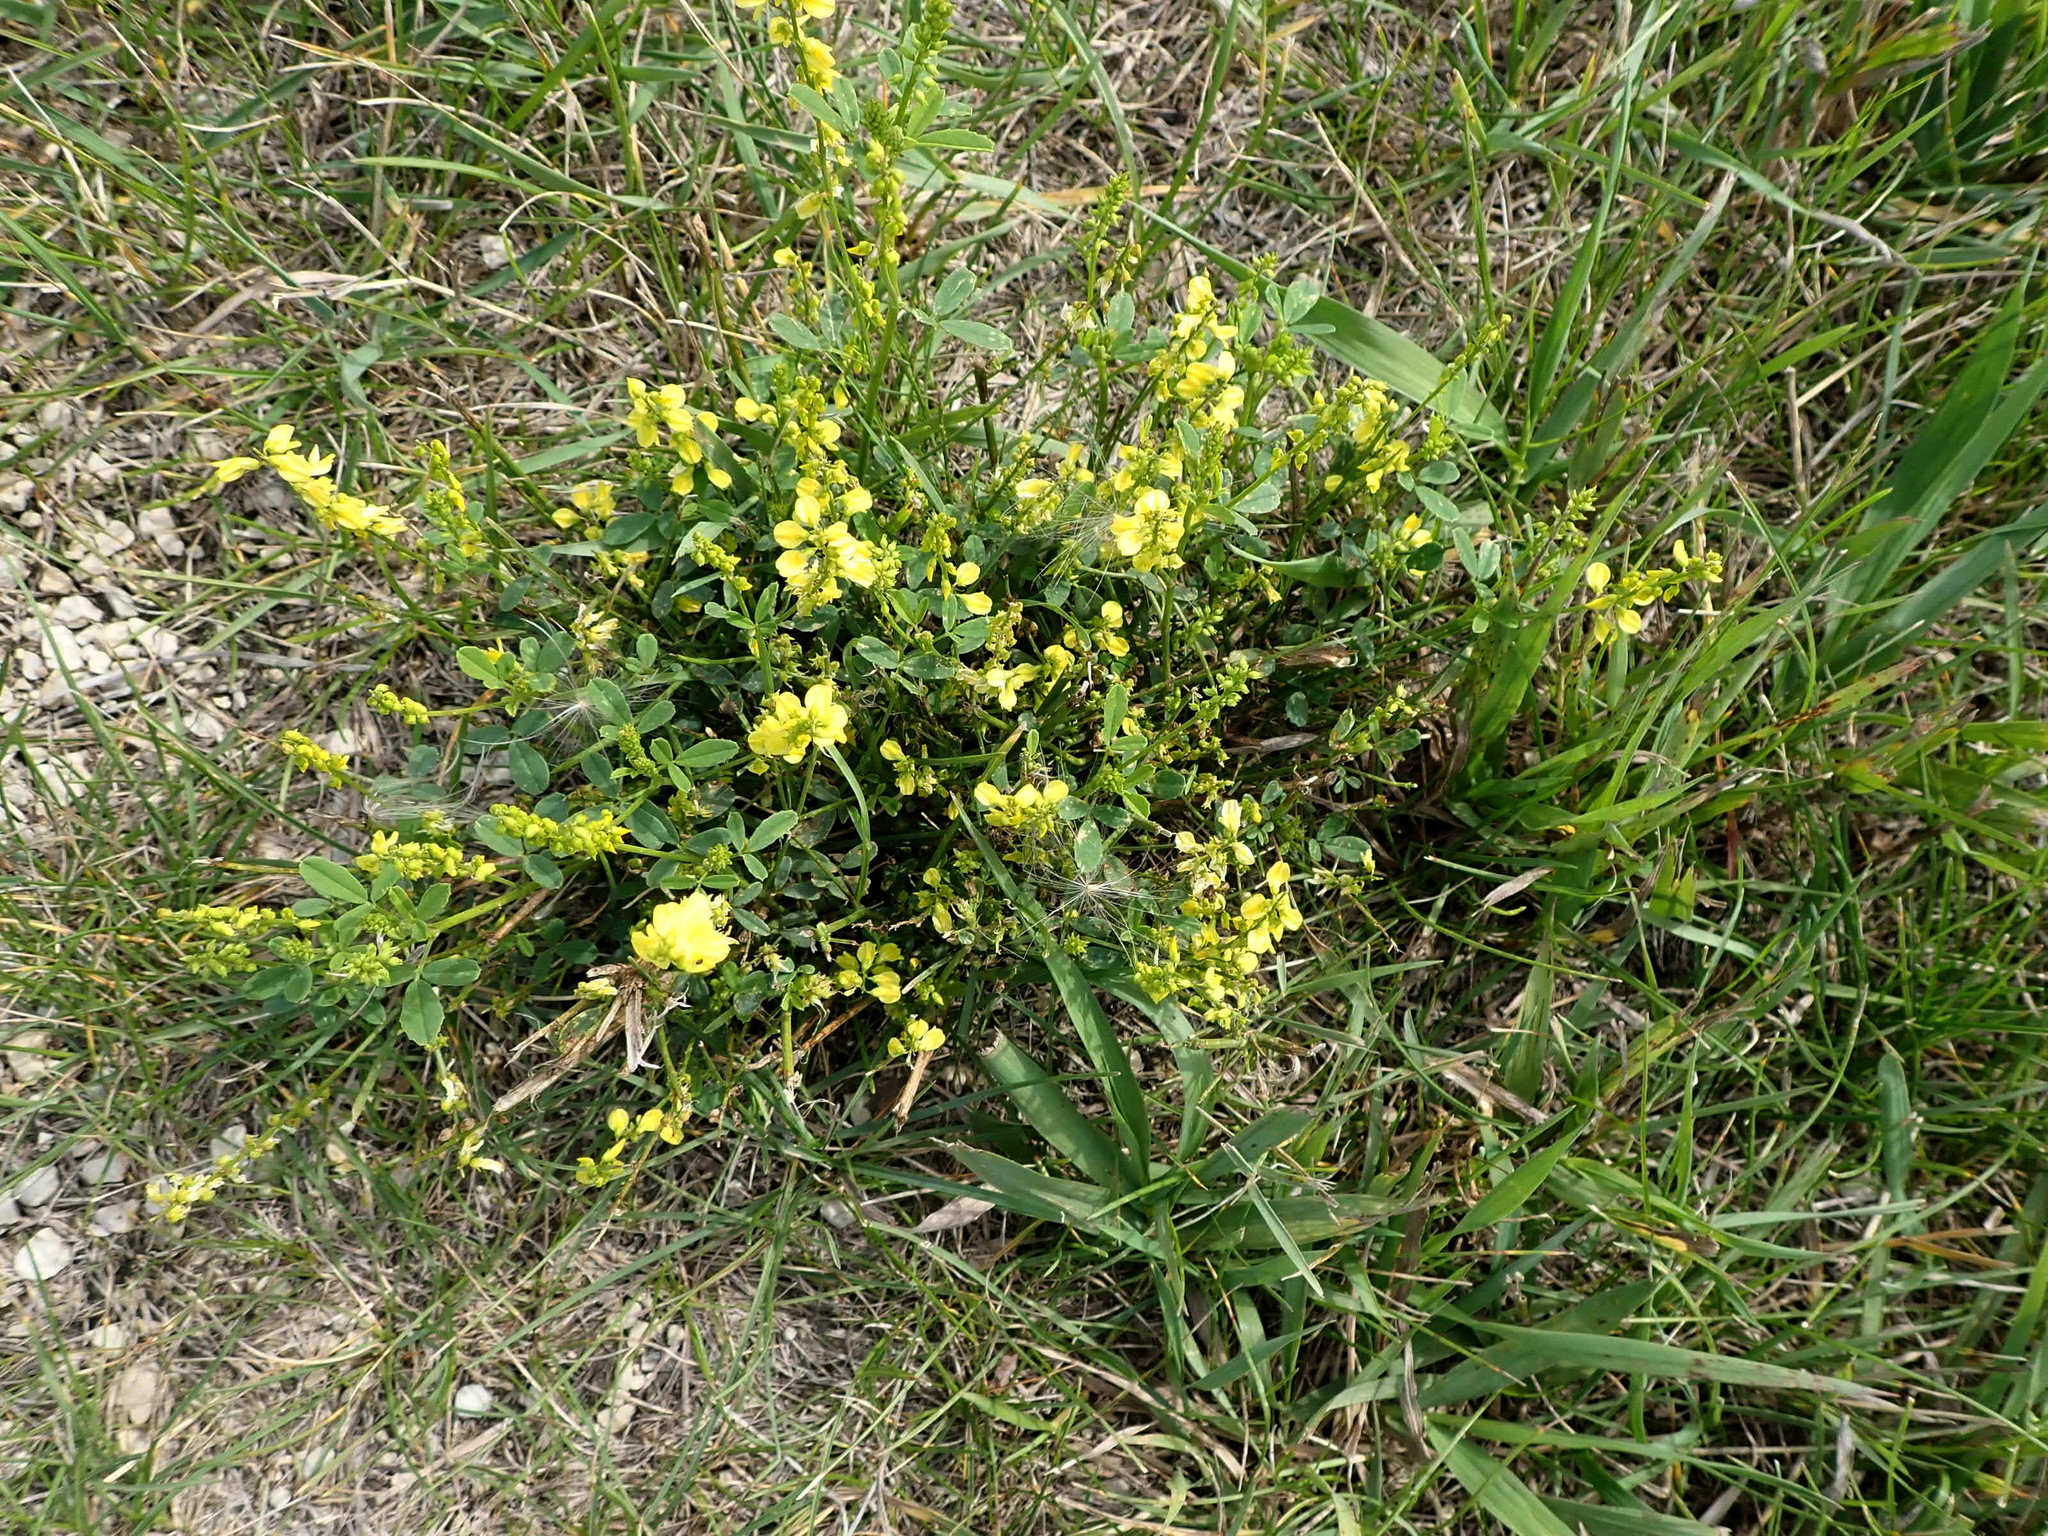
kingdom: Plantae
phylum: Tracheophyta
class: Magnoliopsida
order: Fabales
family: Fabaceae
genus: Melilotus
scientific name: Melilotus officinalis
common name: Sweetclover
